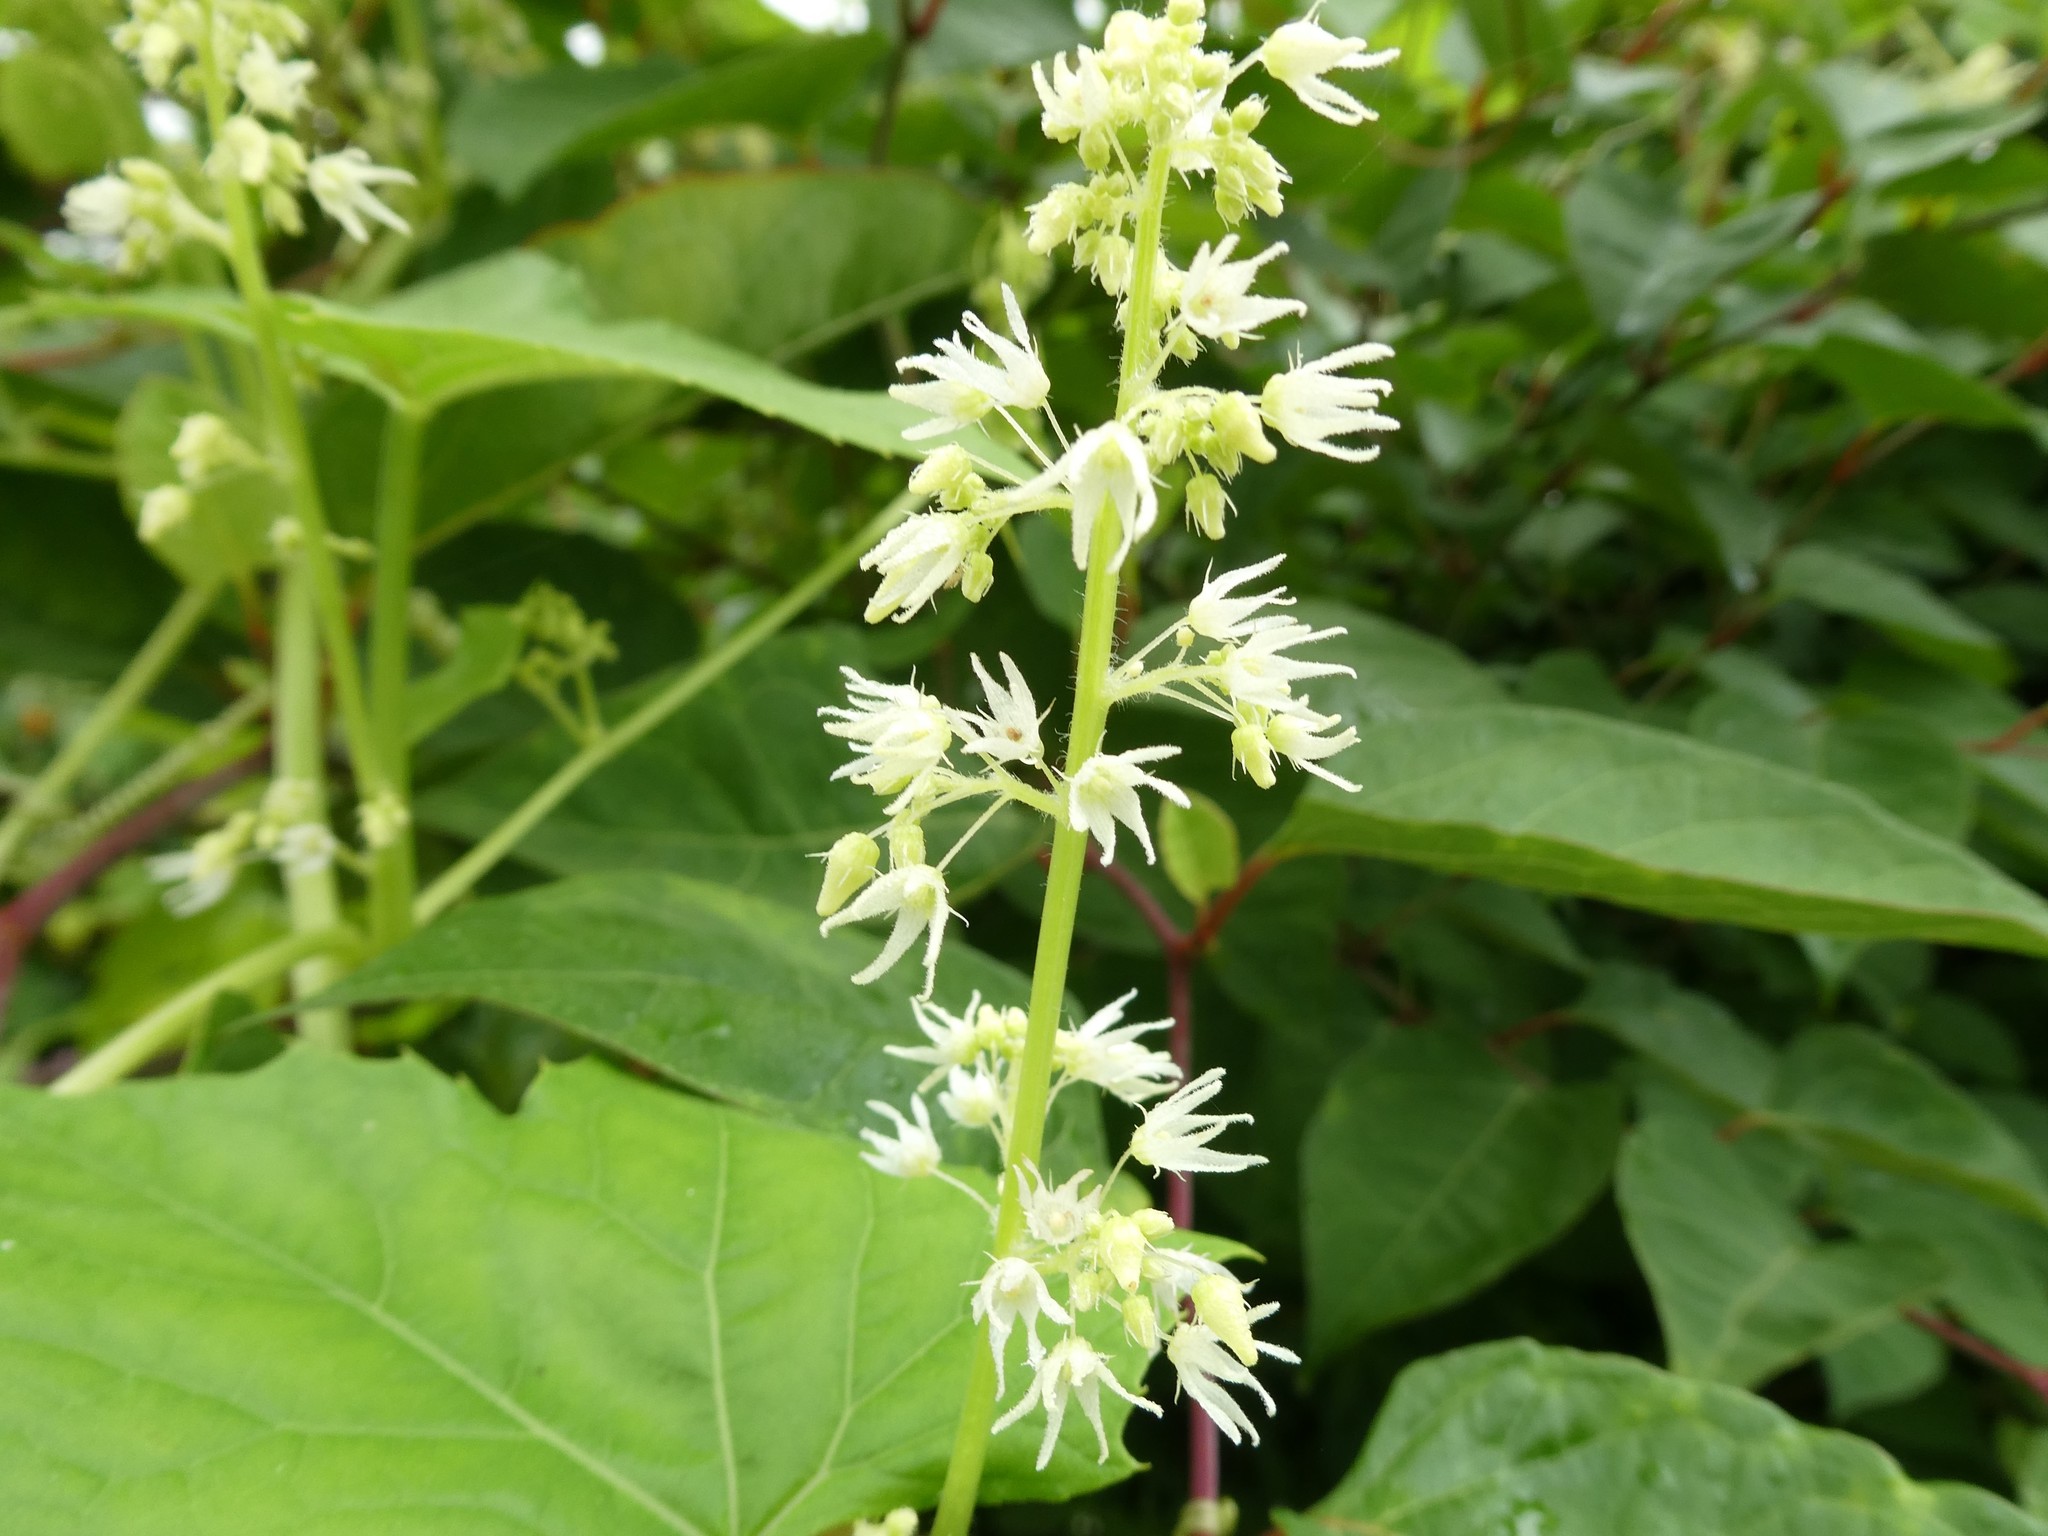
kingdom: Plantae
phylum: Tracheophyta
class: Magnoliopsida
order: Cucurbitales
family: Cucurbitaceae
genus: Echinocystis
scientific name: Echinocystis lobata
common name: Wild cucumber
